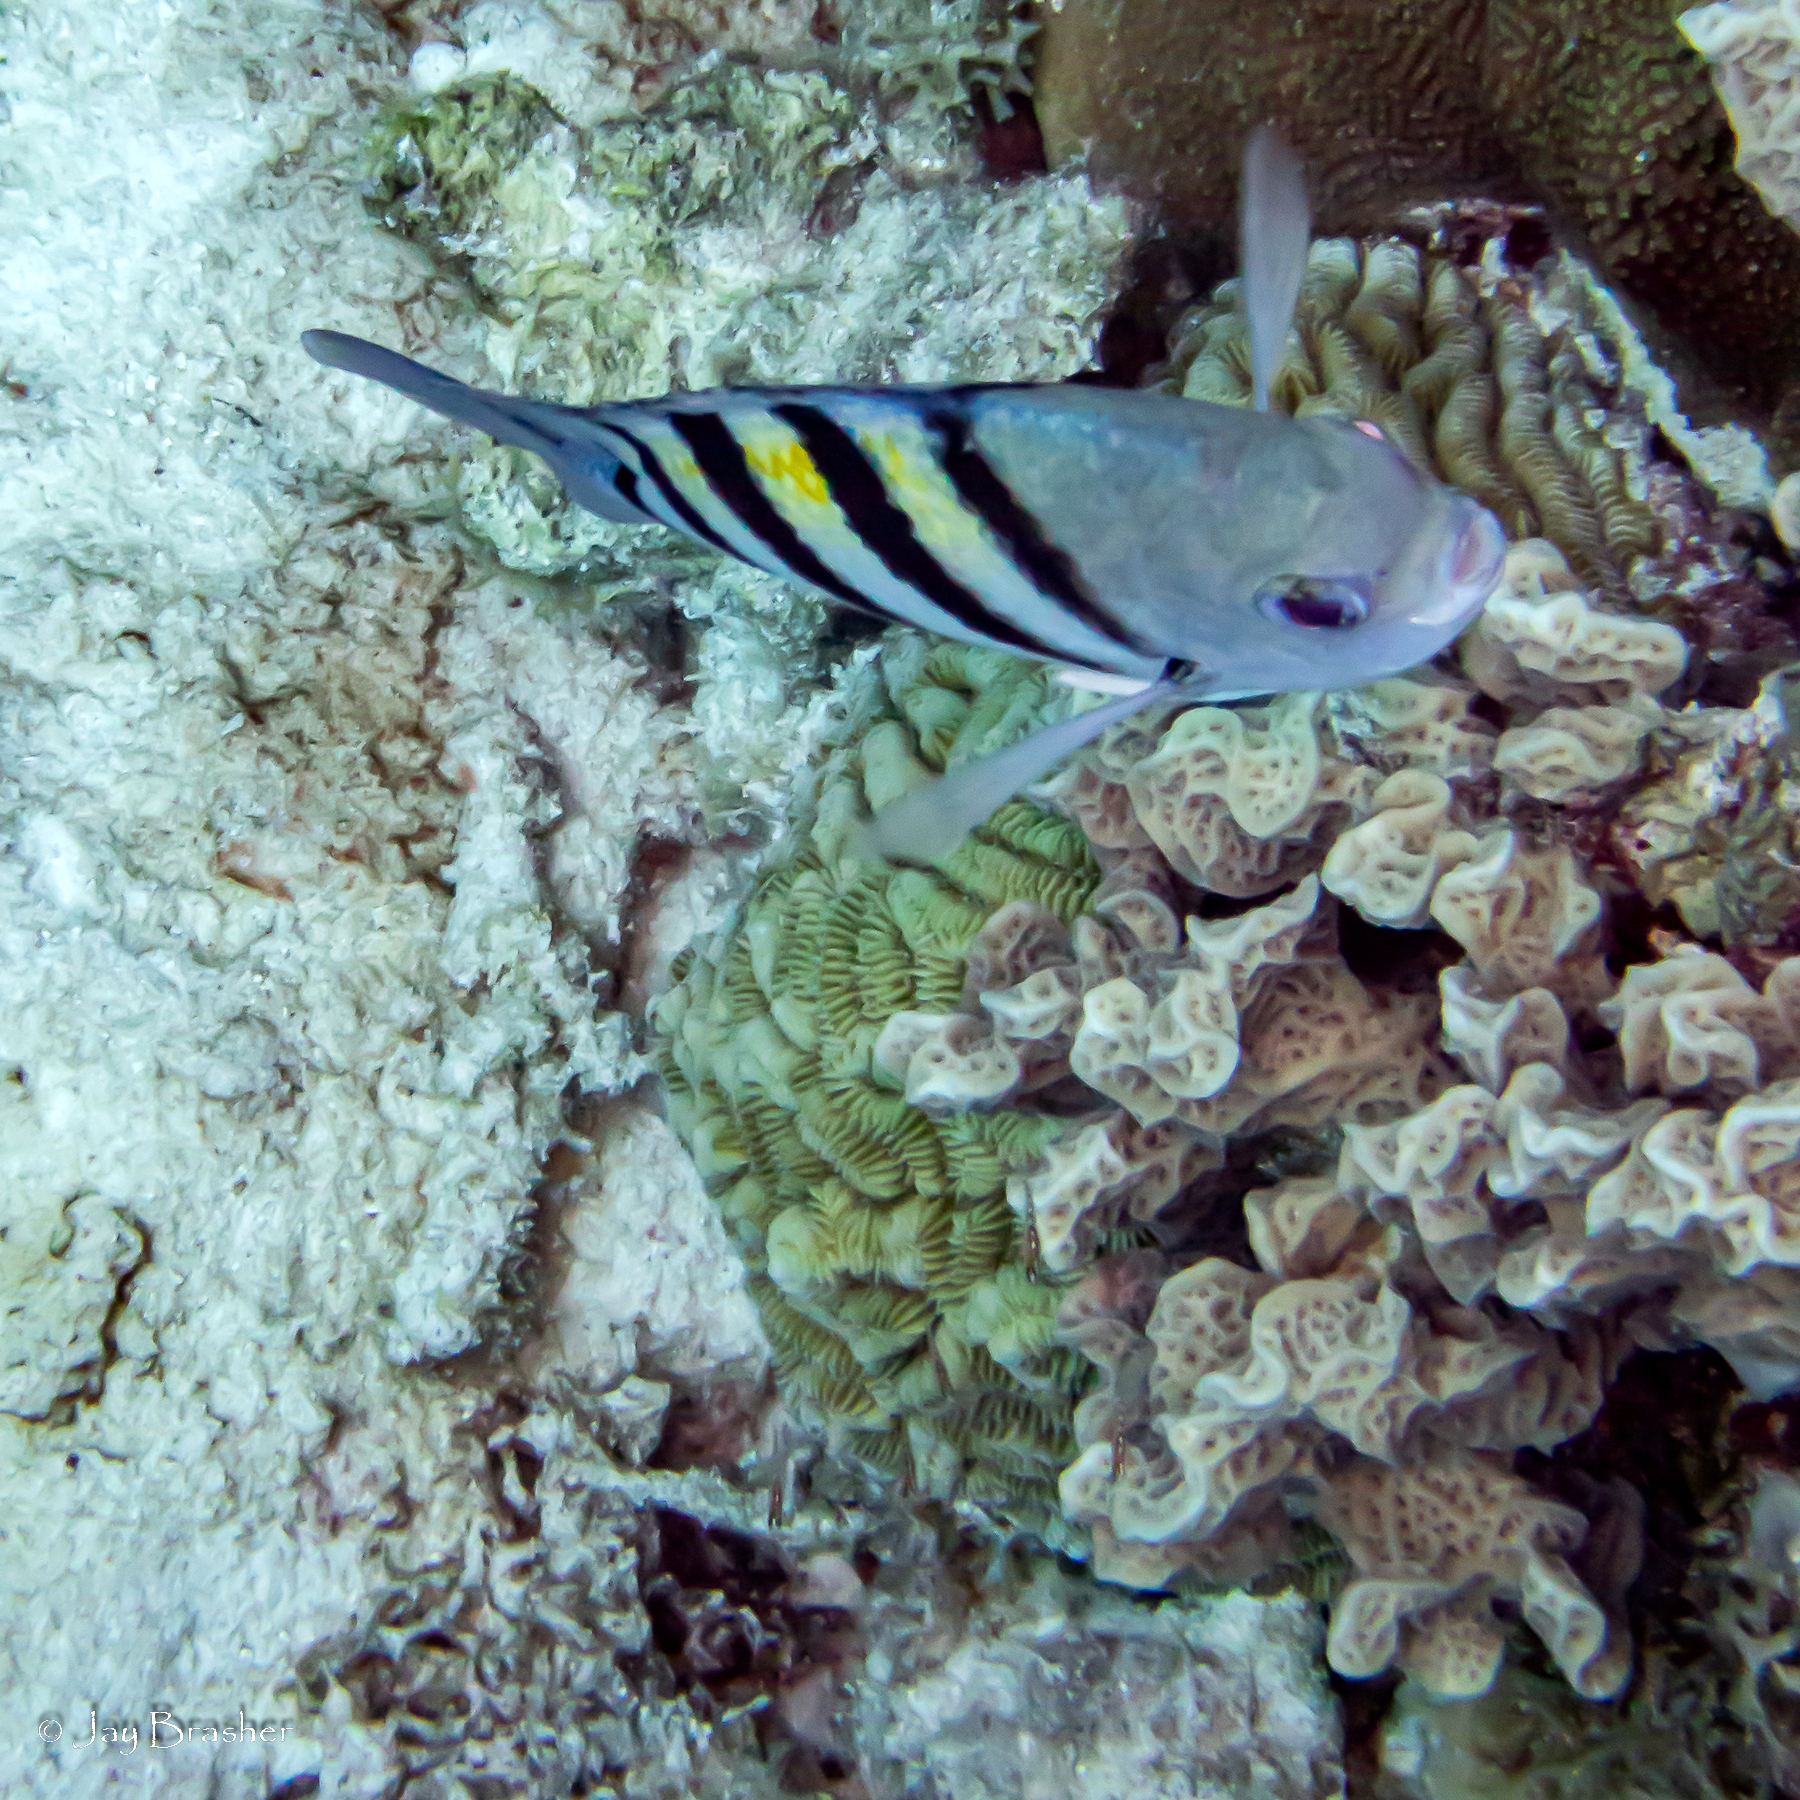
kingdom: Animalia
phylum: Chordata
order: Perciformes
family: Pomacentridae
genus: Abudefduf
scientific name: Abudefduf saxatilis
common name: Sergeant major
